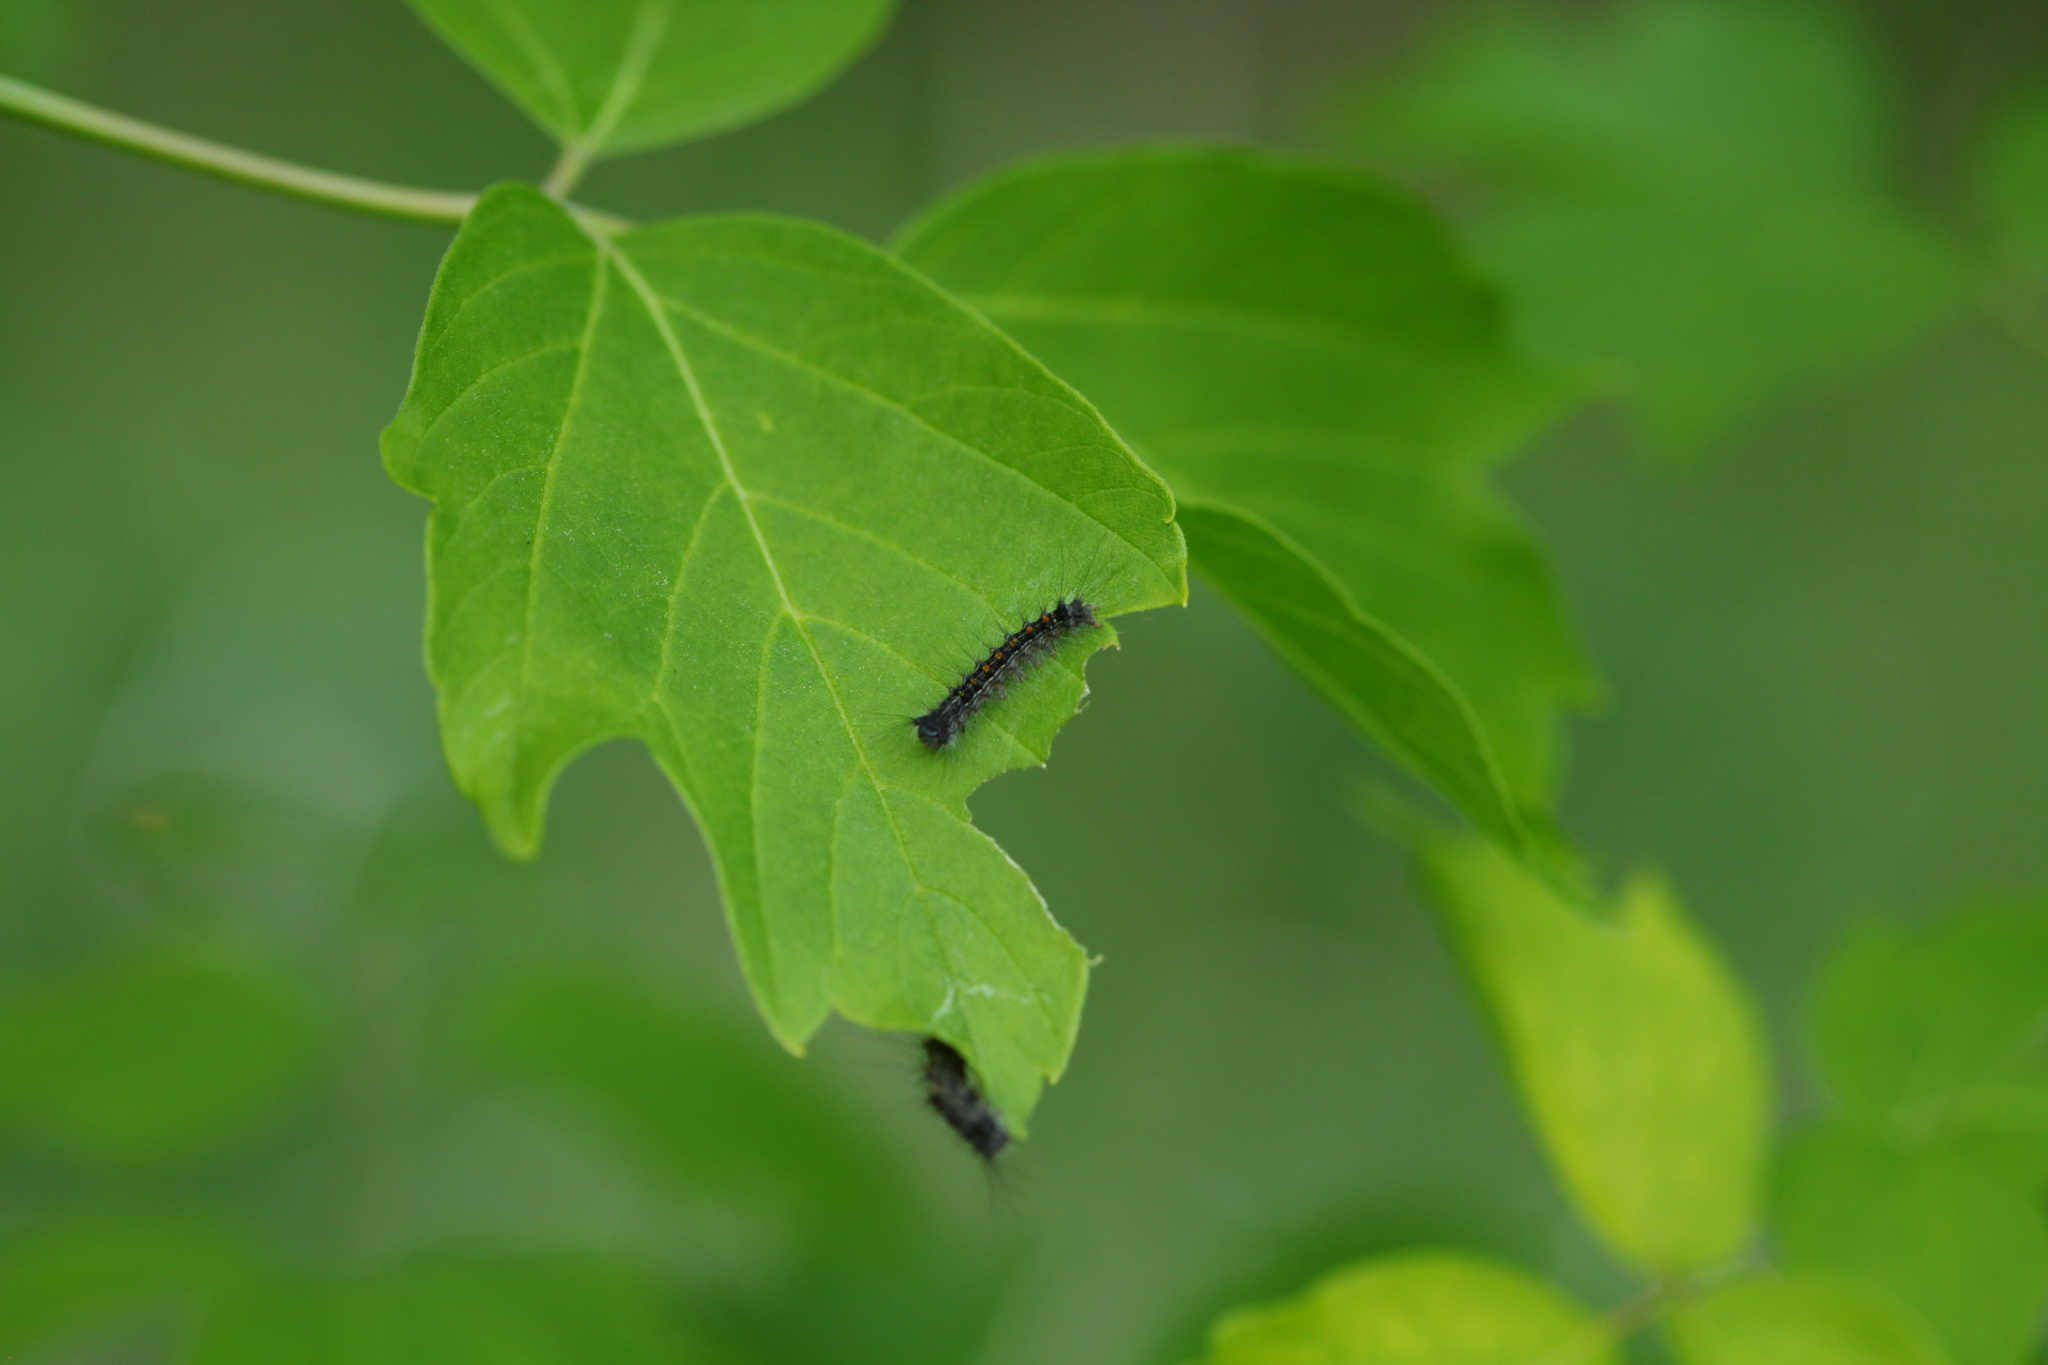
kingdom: Animalia
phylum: Arthropoda
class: Insecta
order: Lepidoptera
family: Erebidae
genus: Lymantria
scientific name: Lymantria dispar
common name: Gypsy moth
